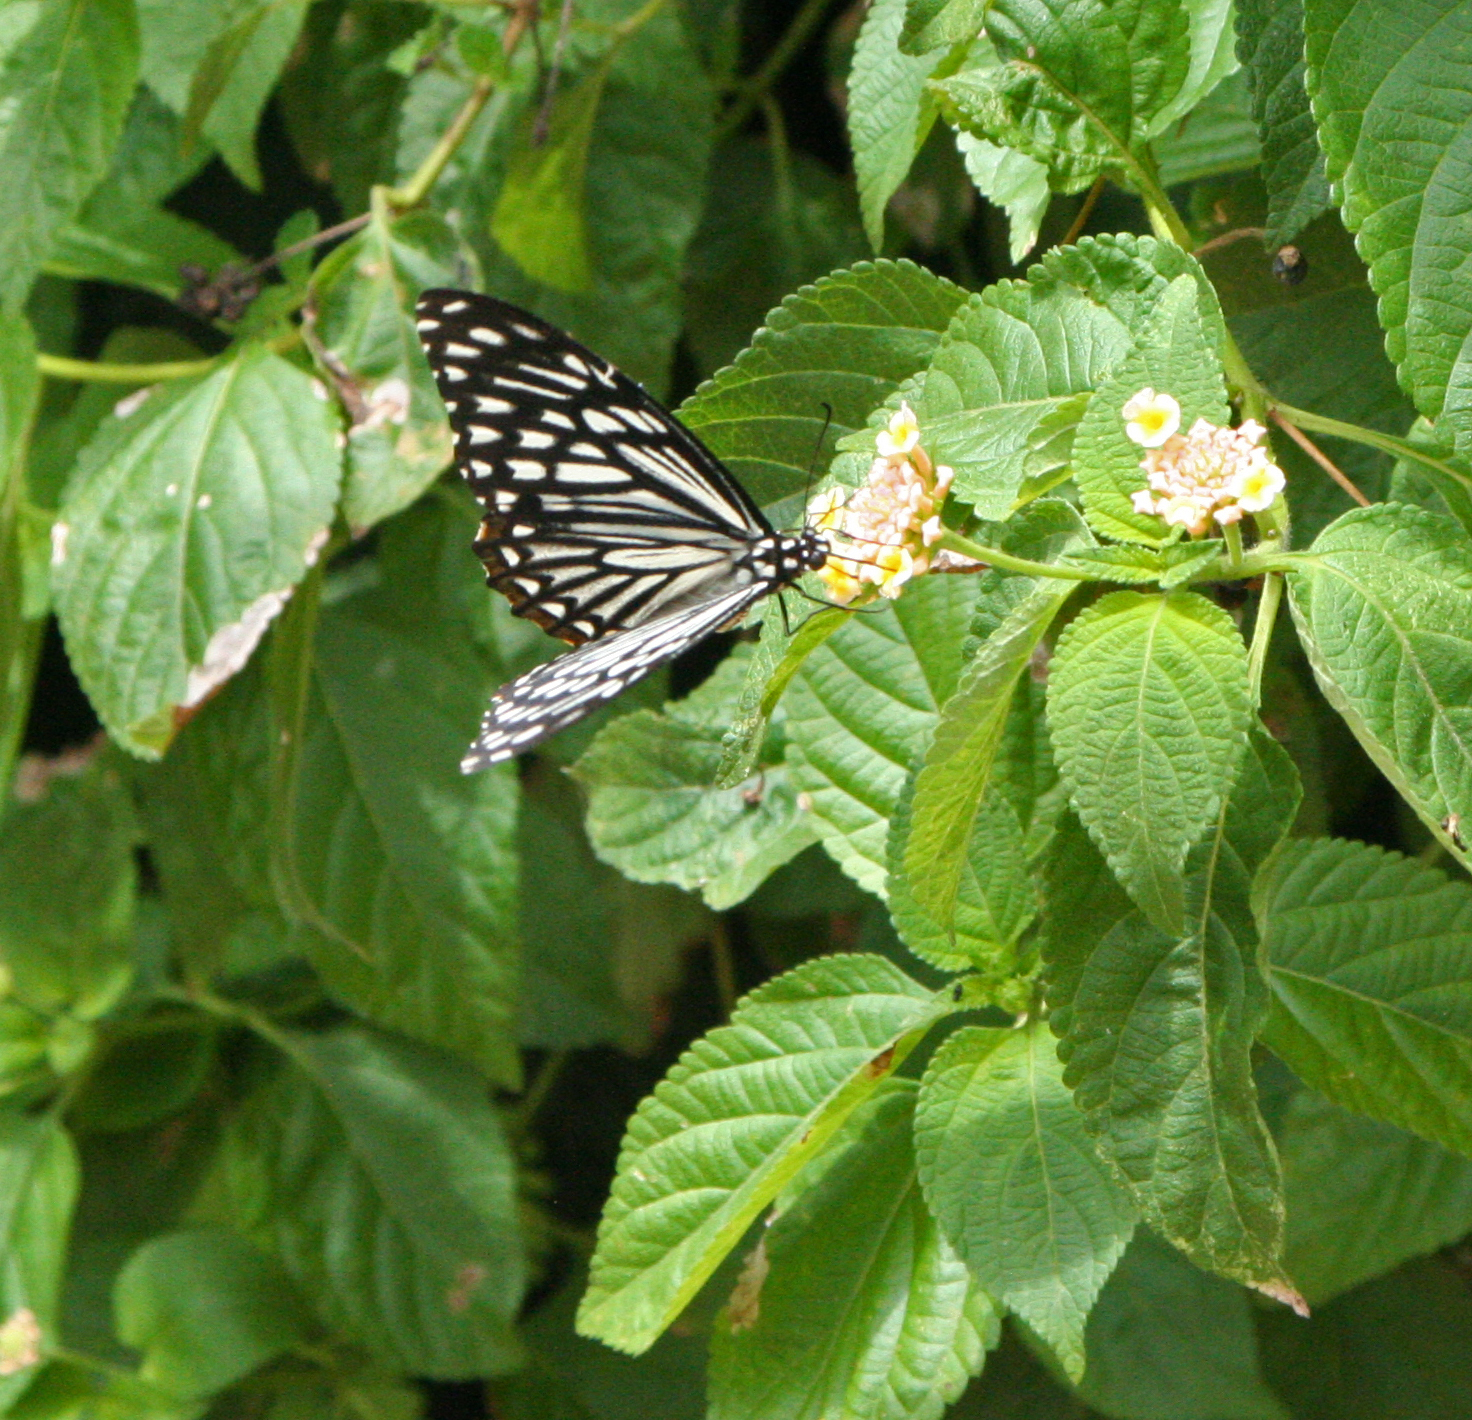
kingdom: Animalia
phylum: Arthropoda
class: Insecta
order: Lepidoptera
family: Papilionidae
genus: Chilasa
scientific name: Chilasa clytia
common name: Common mime
